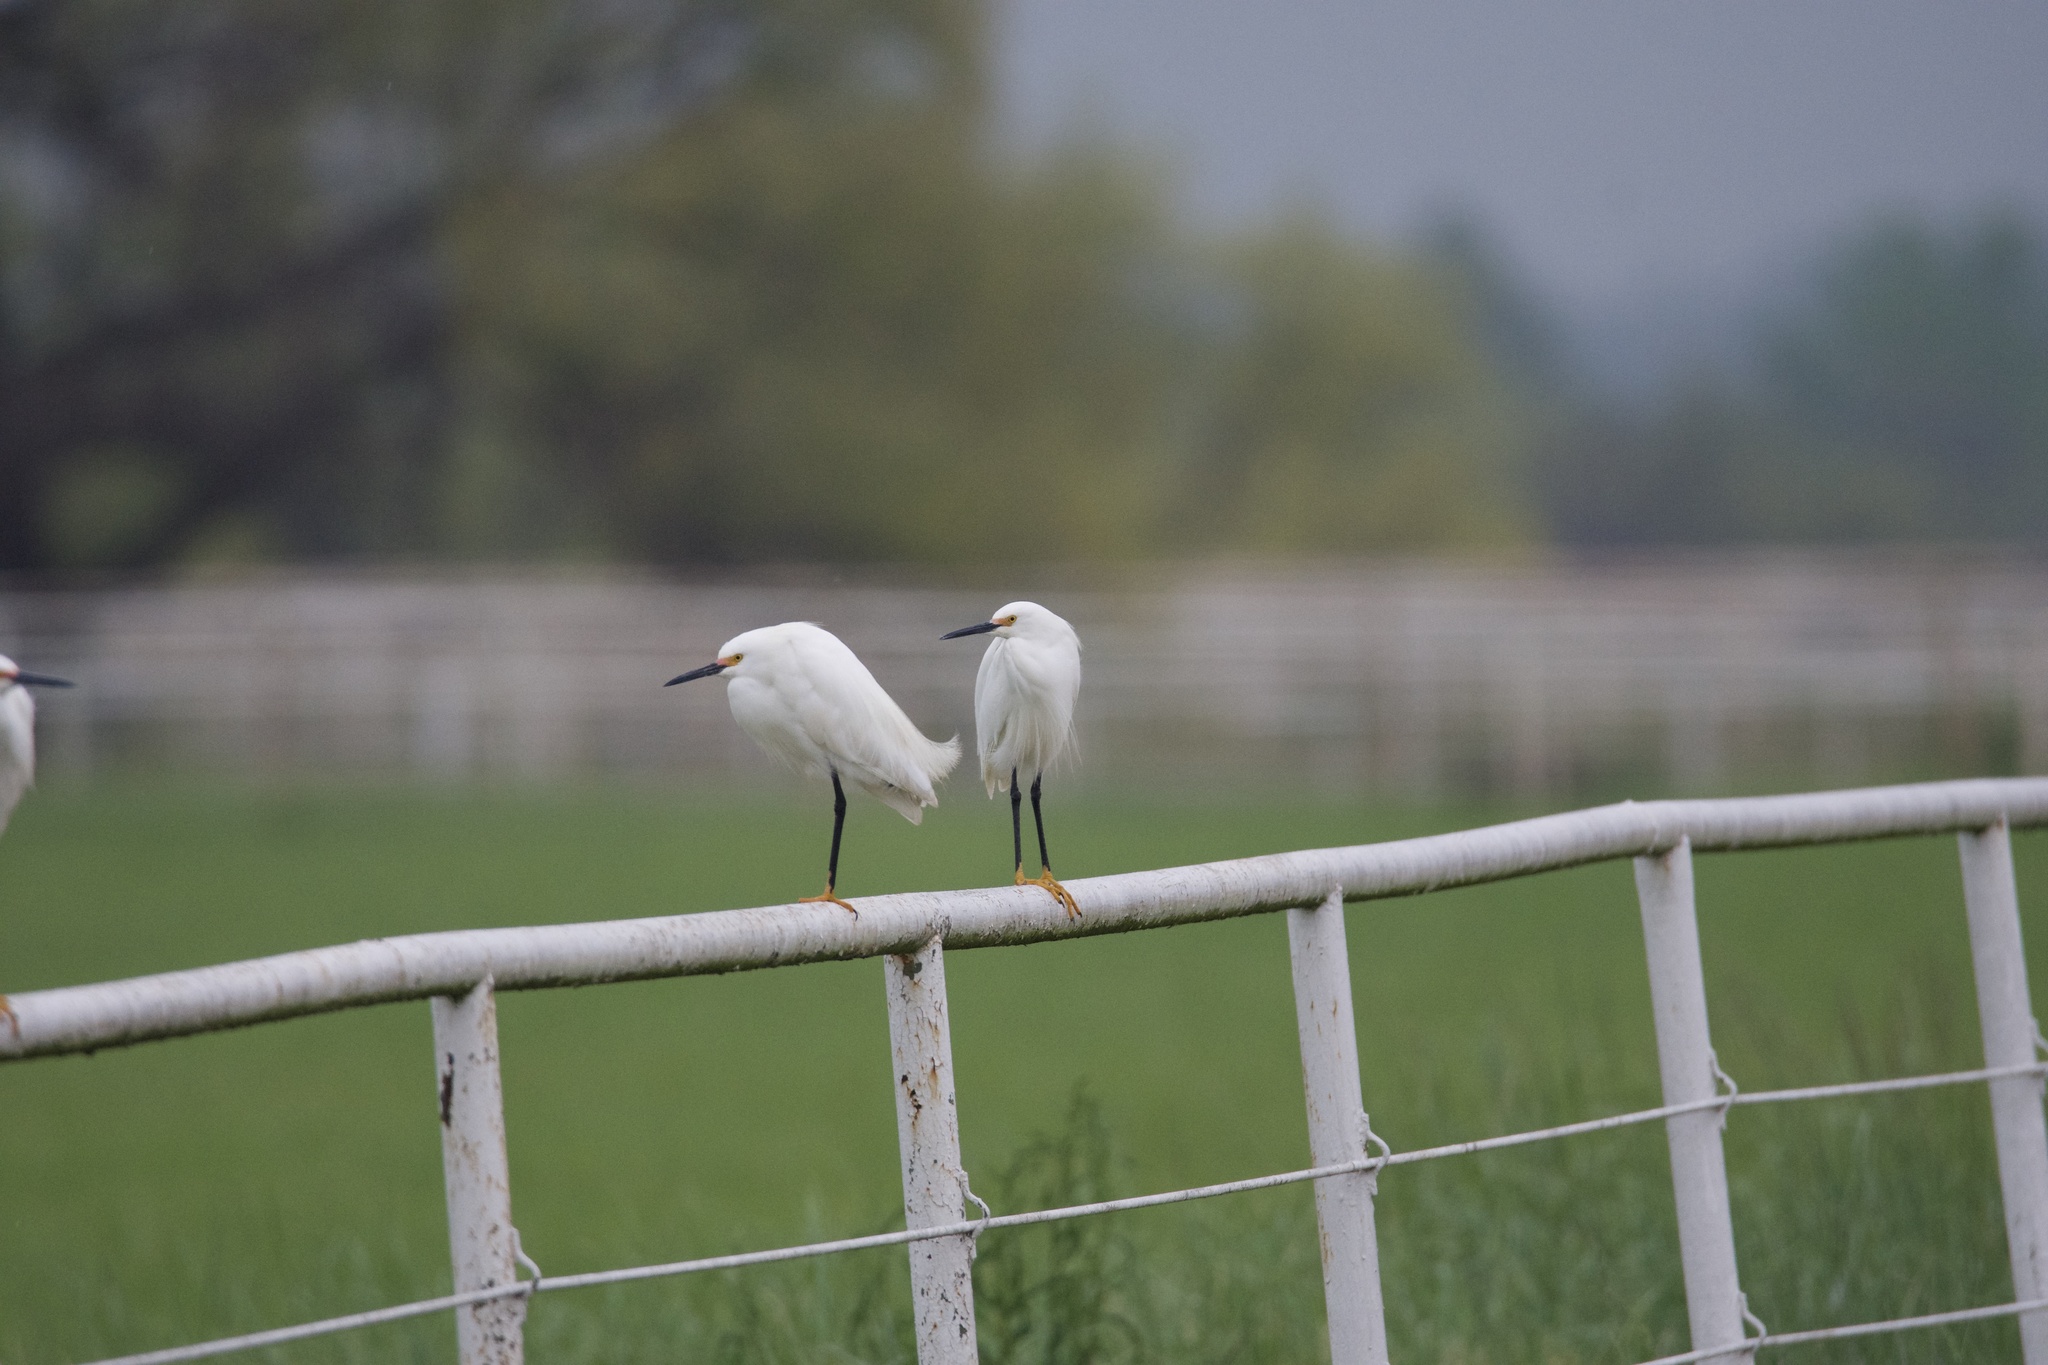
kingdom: Animalia
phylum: Chordata
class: Aves
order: Pelecaniformes
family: Ardeidae
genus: Egretta
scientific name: Egretta thula
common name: Snowy egret
